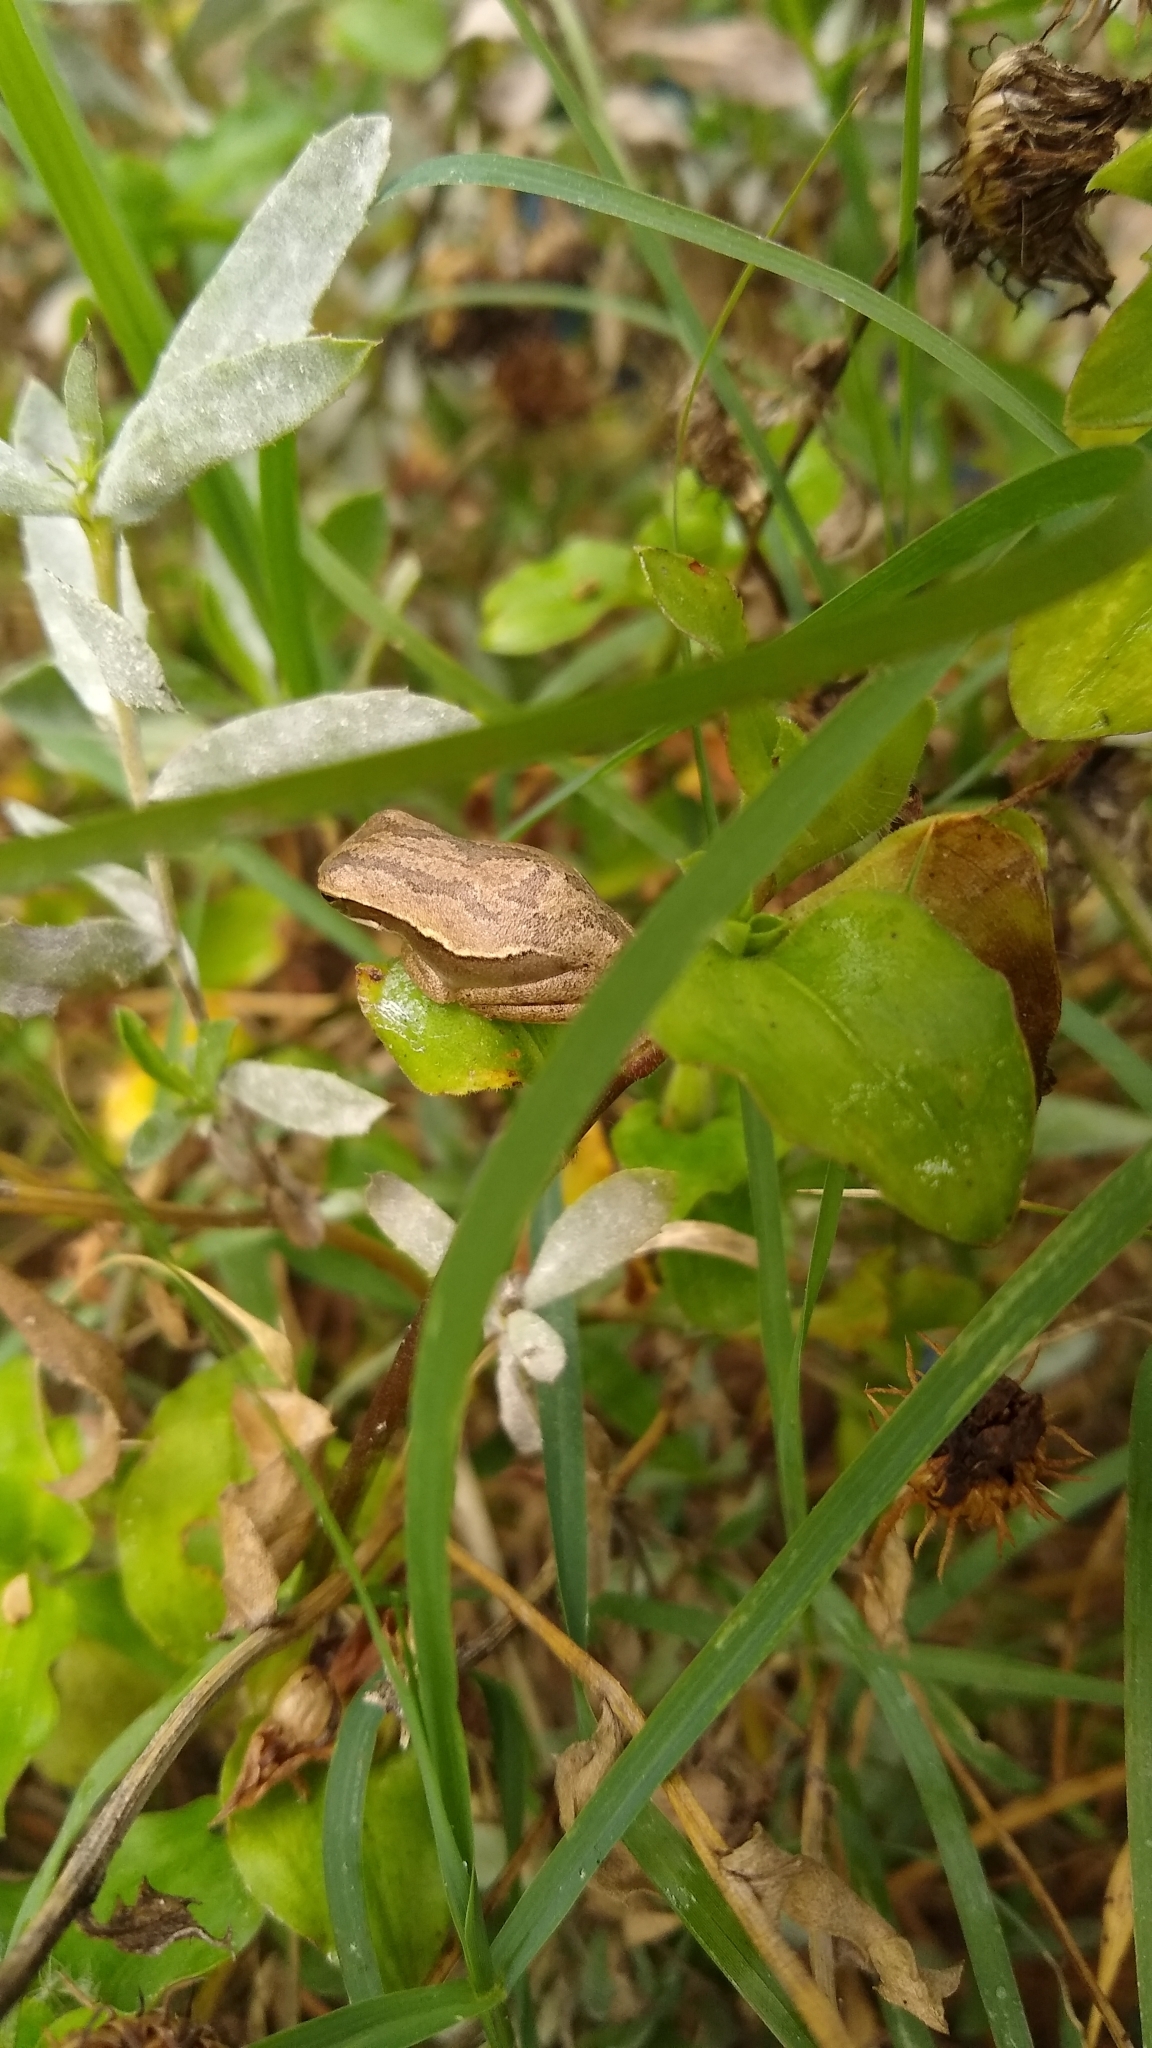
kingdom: Animalia
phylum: Chordata
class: Amphibia
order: Anura
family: Hylidae
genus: Boana
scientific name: Boana pulchella
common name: Montevideo treefrog
